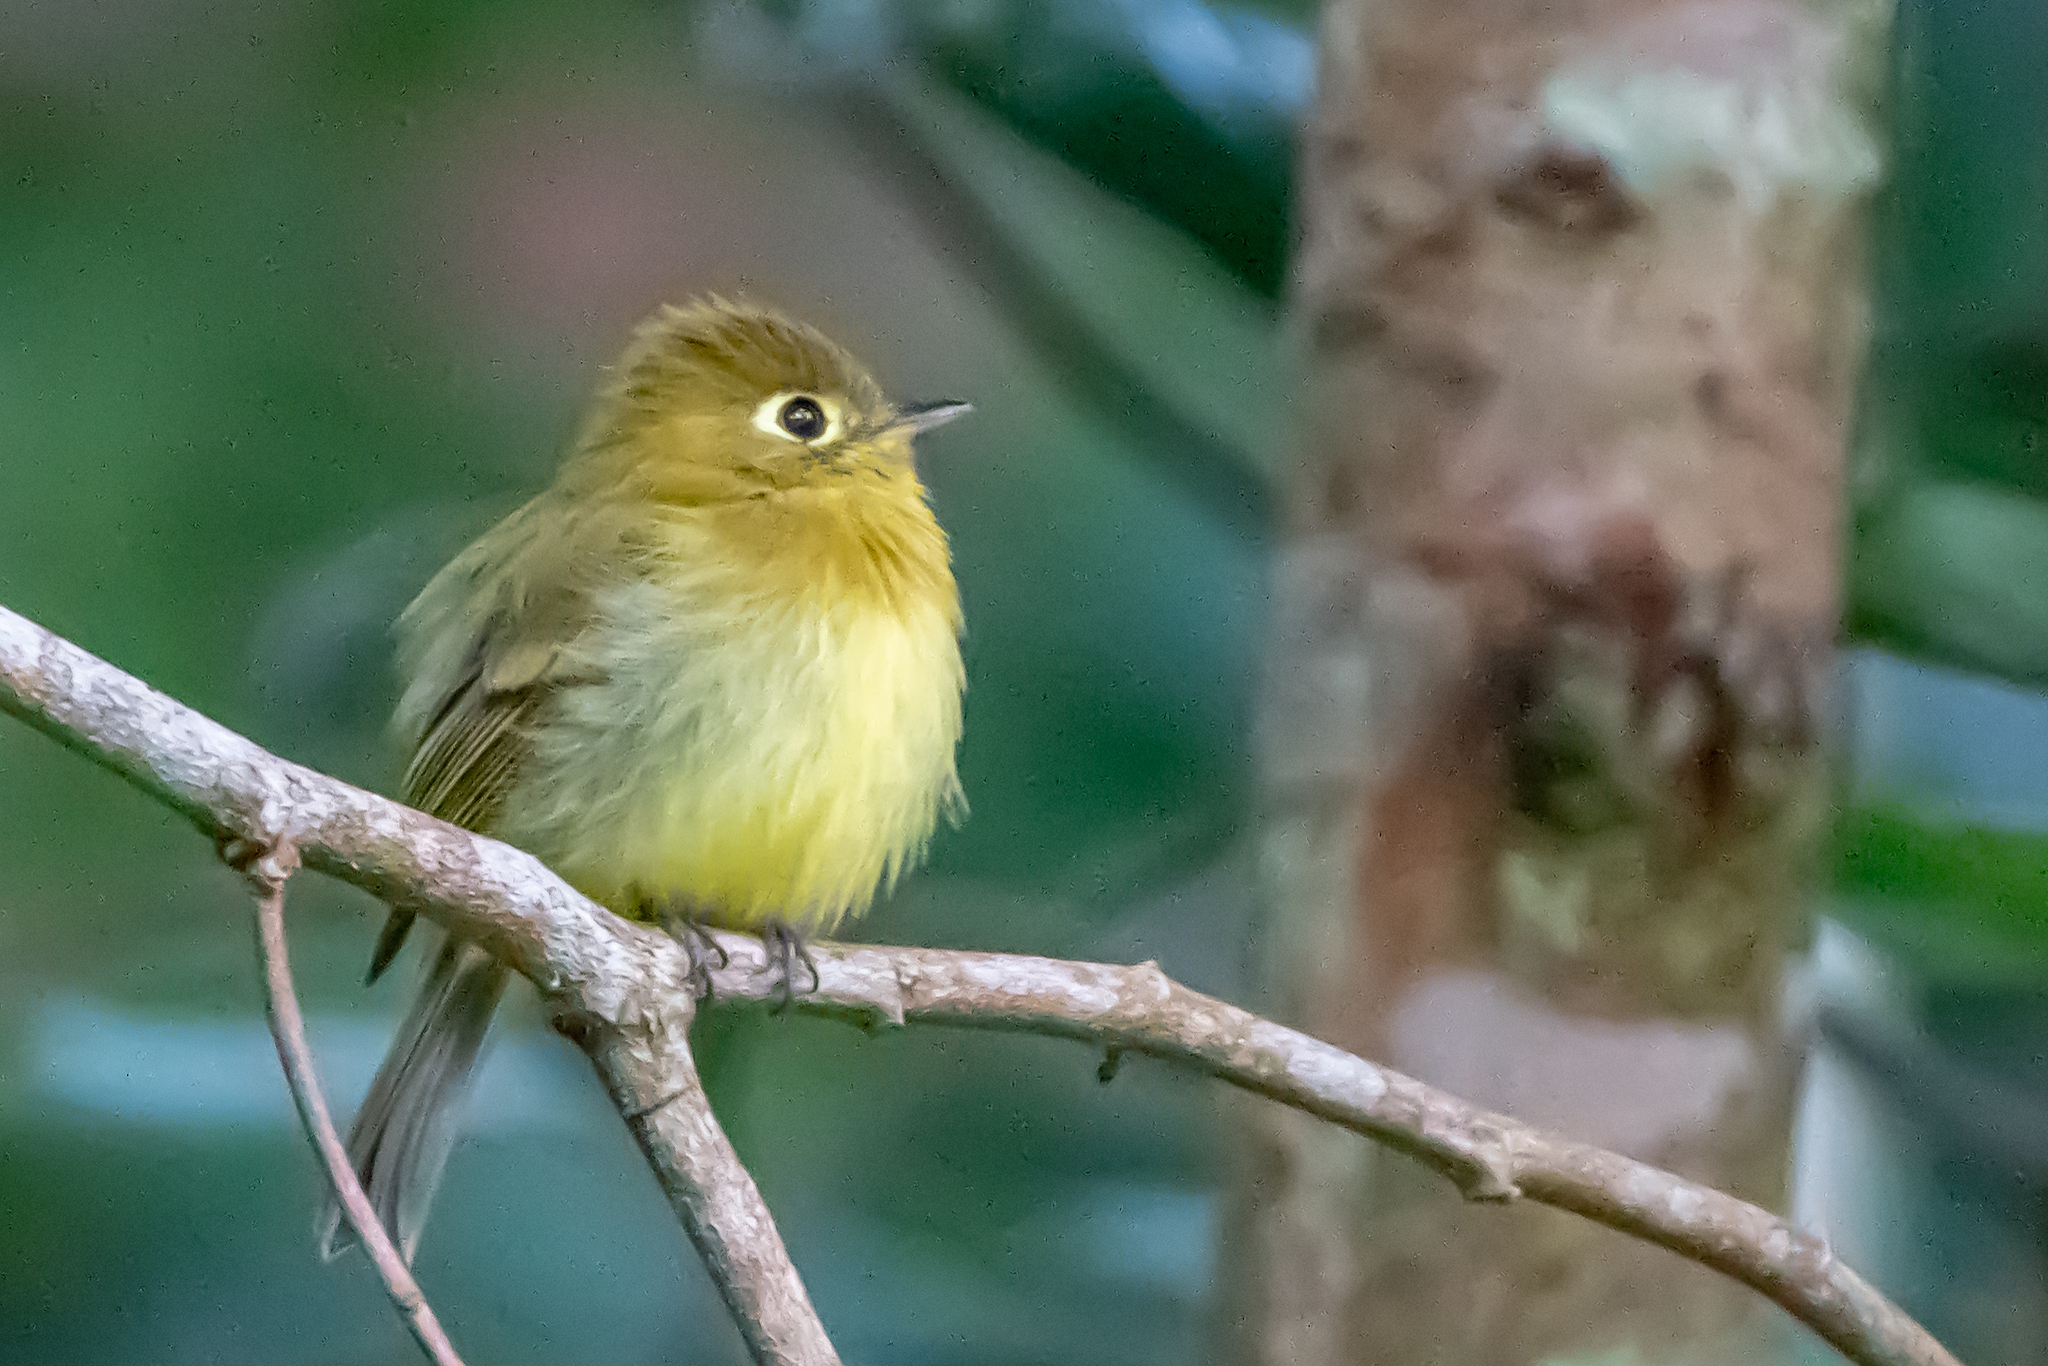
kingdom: Animalia
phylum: Chordata
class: Aves
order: Passeriformes
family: Tyrannidae
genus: Empidonax
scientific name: Empidonax flavescens
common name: Yellowish flycatcher
